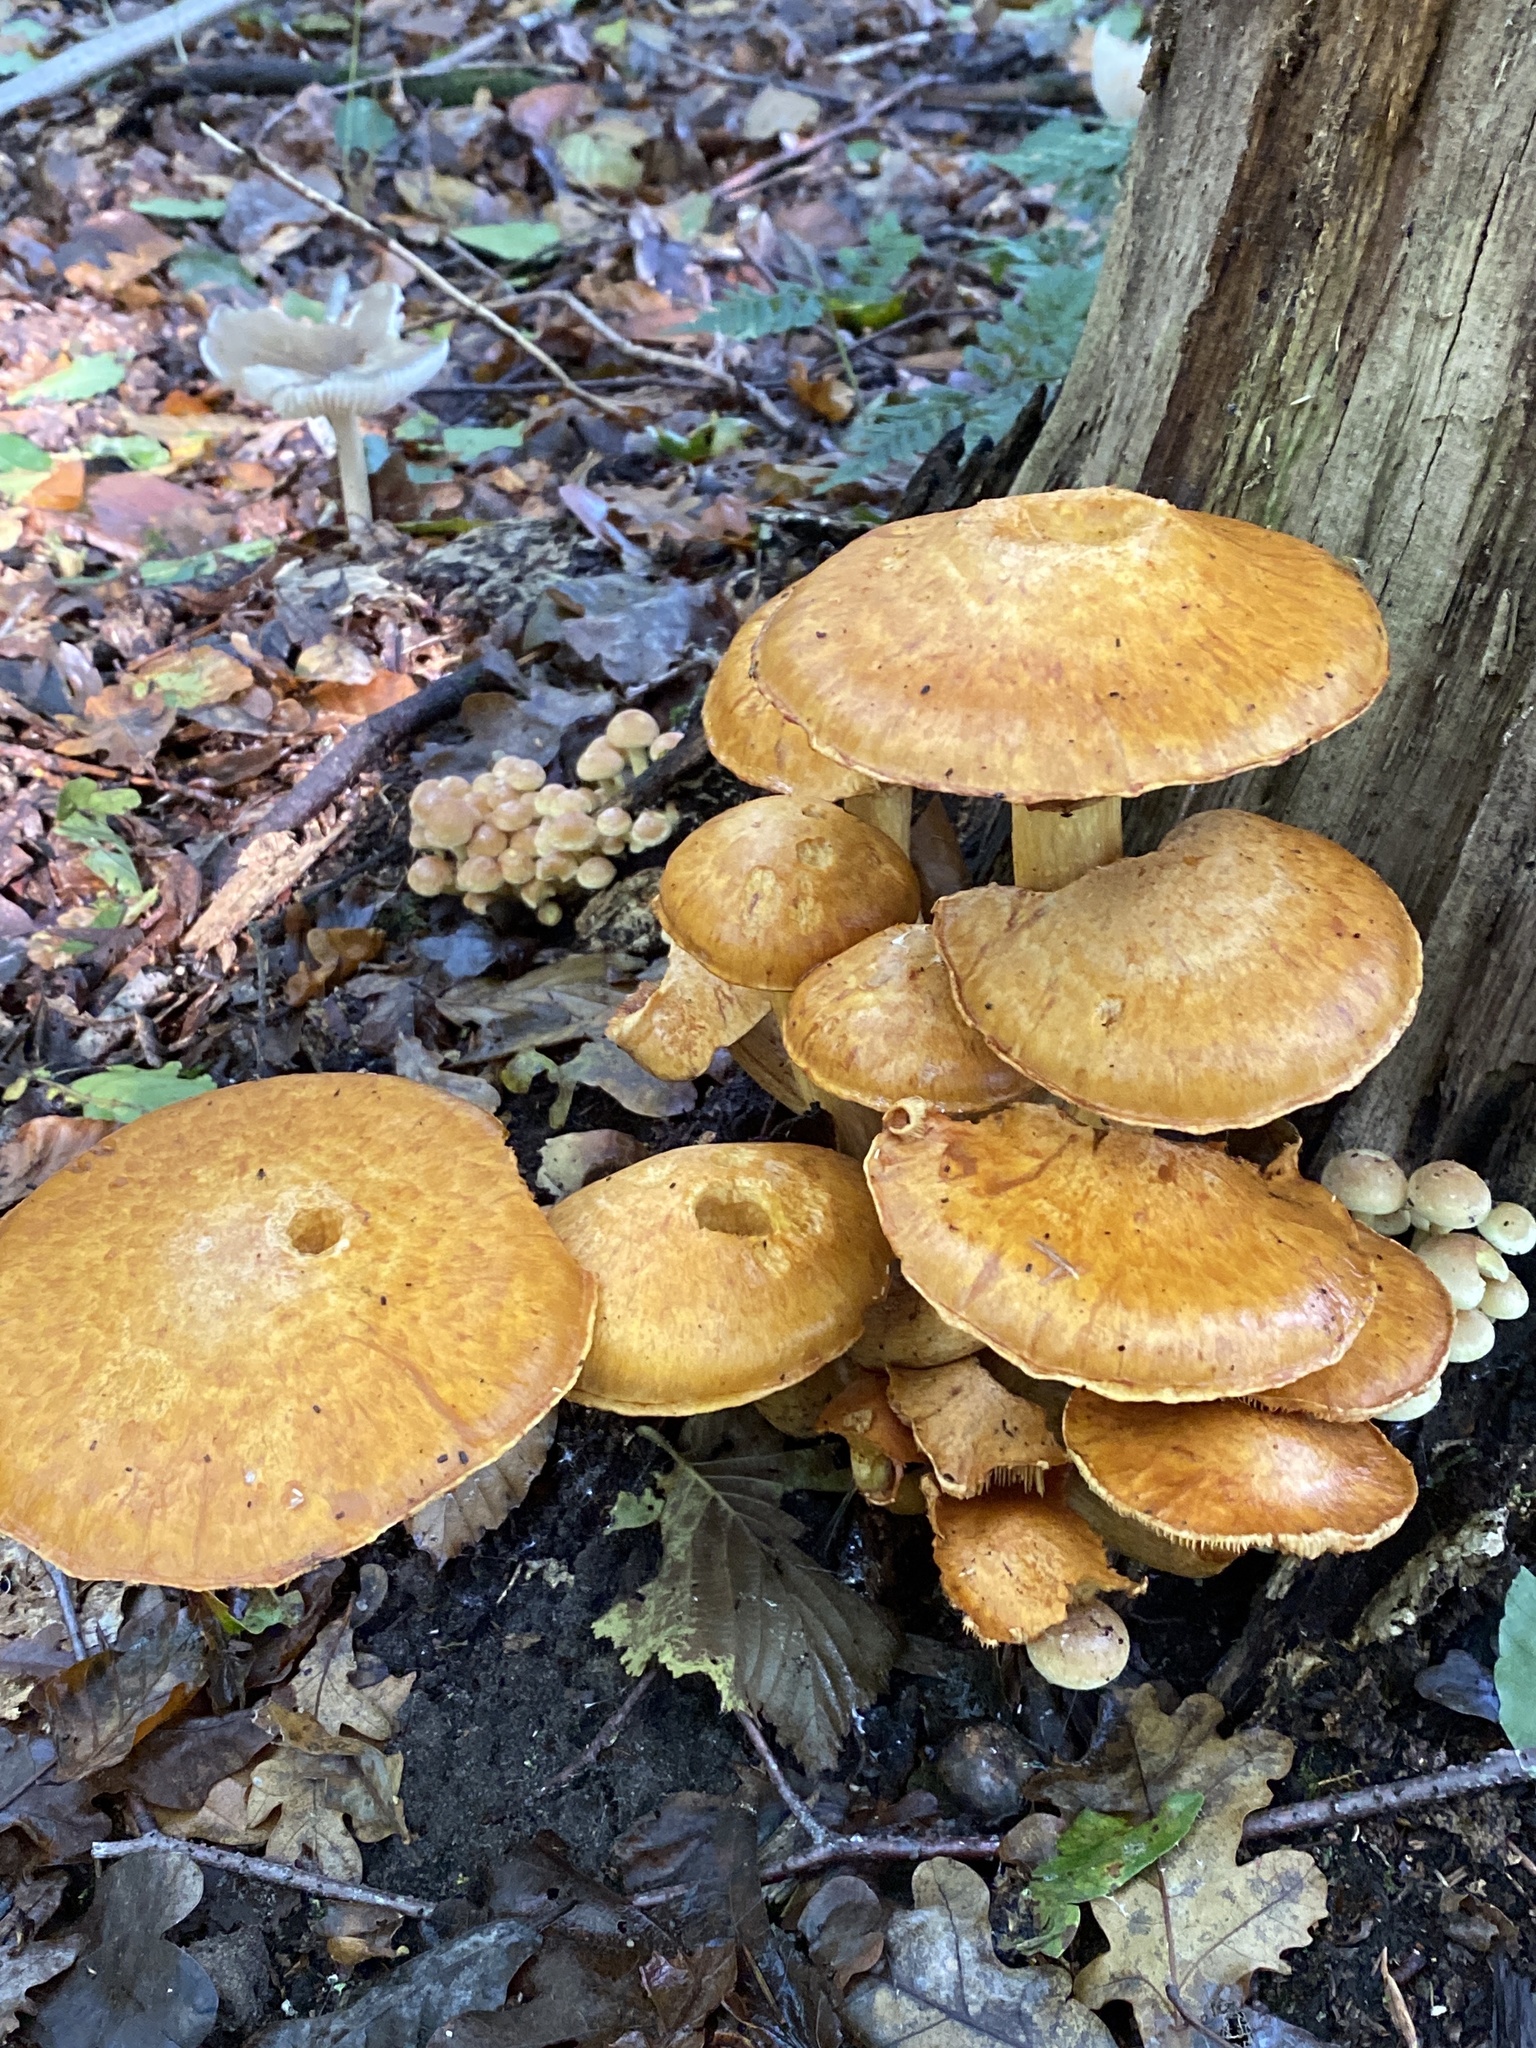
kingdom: Fungi
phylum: Basidiomycota
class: Agaricomycetes
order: Agaricales
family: Hymenogastraceae
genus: Gymnopilus
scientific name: Gymnopilus junonius
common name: Spectacular rustgill
